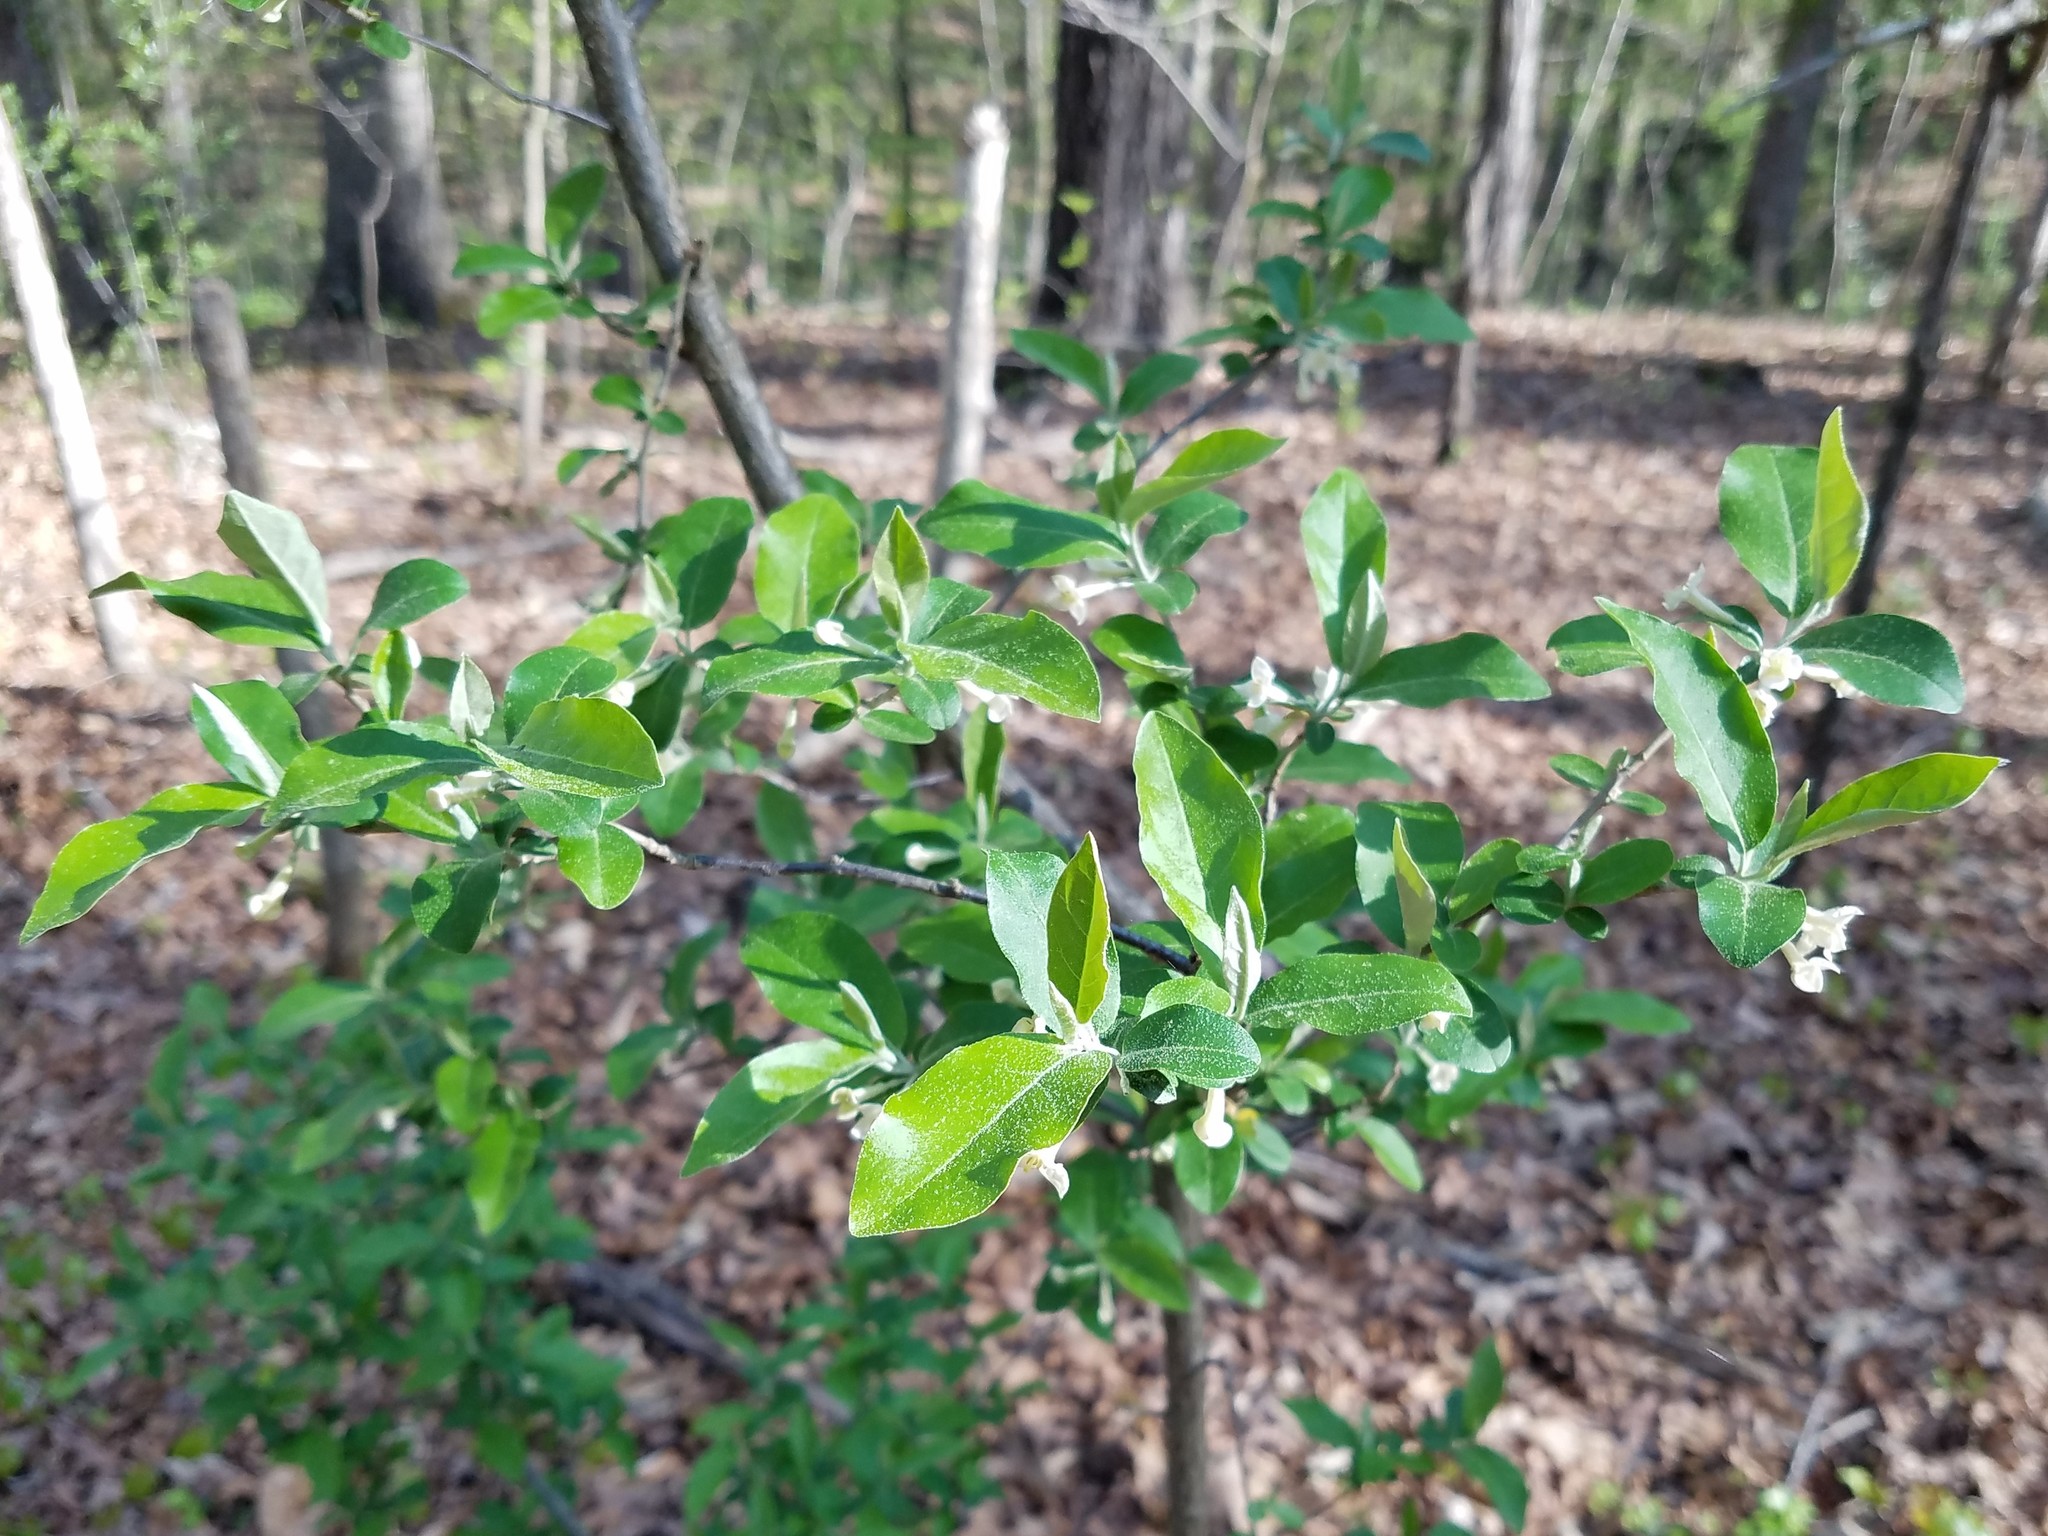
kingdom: Plantae
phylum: Tracheophyta
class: Magnoliopsida
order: Rosales
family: Elaeagnaceae
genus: Elaeagnus
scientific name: Elaeagnus umbellata
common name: Autumn olive
